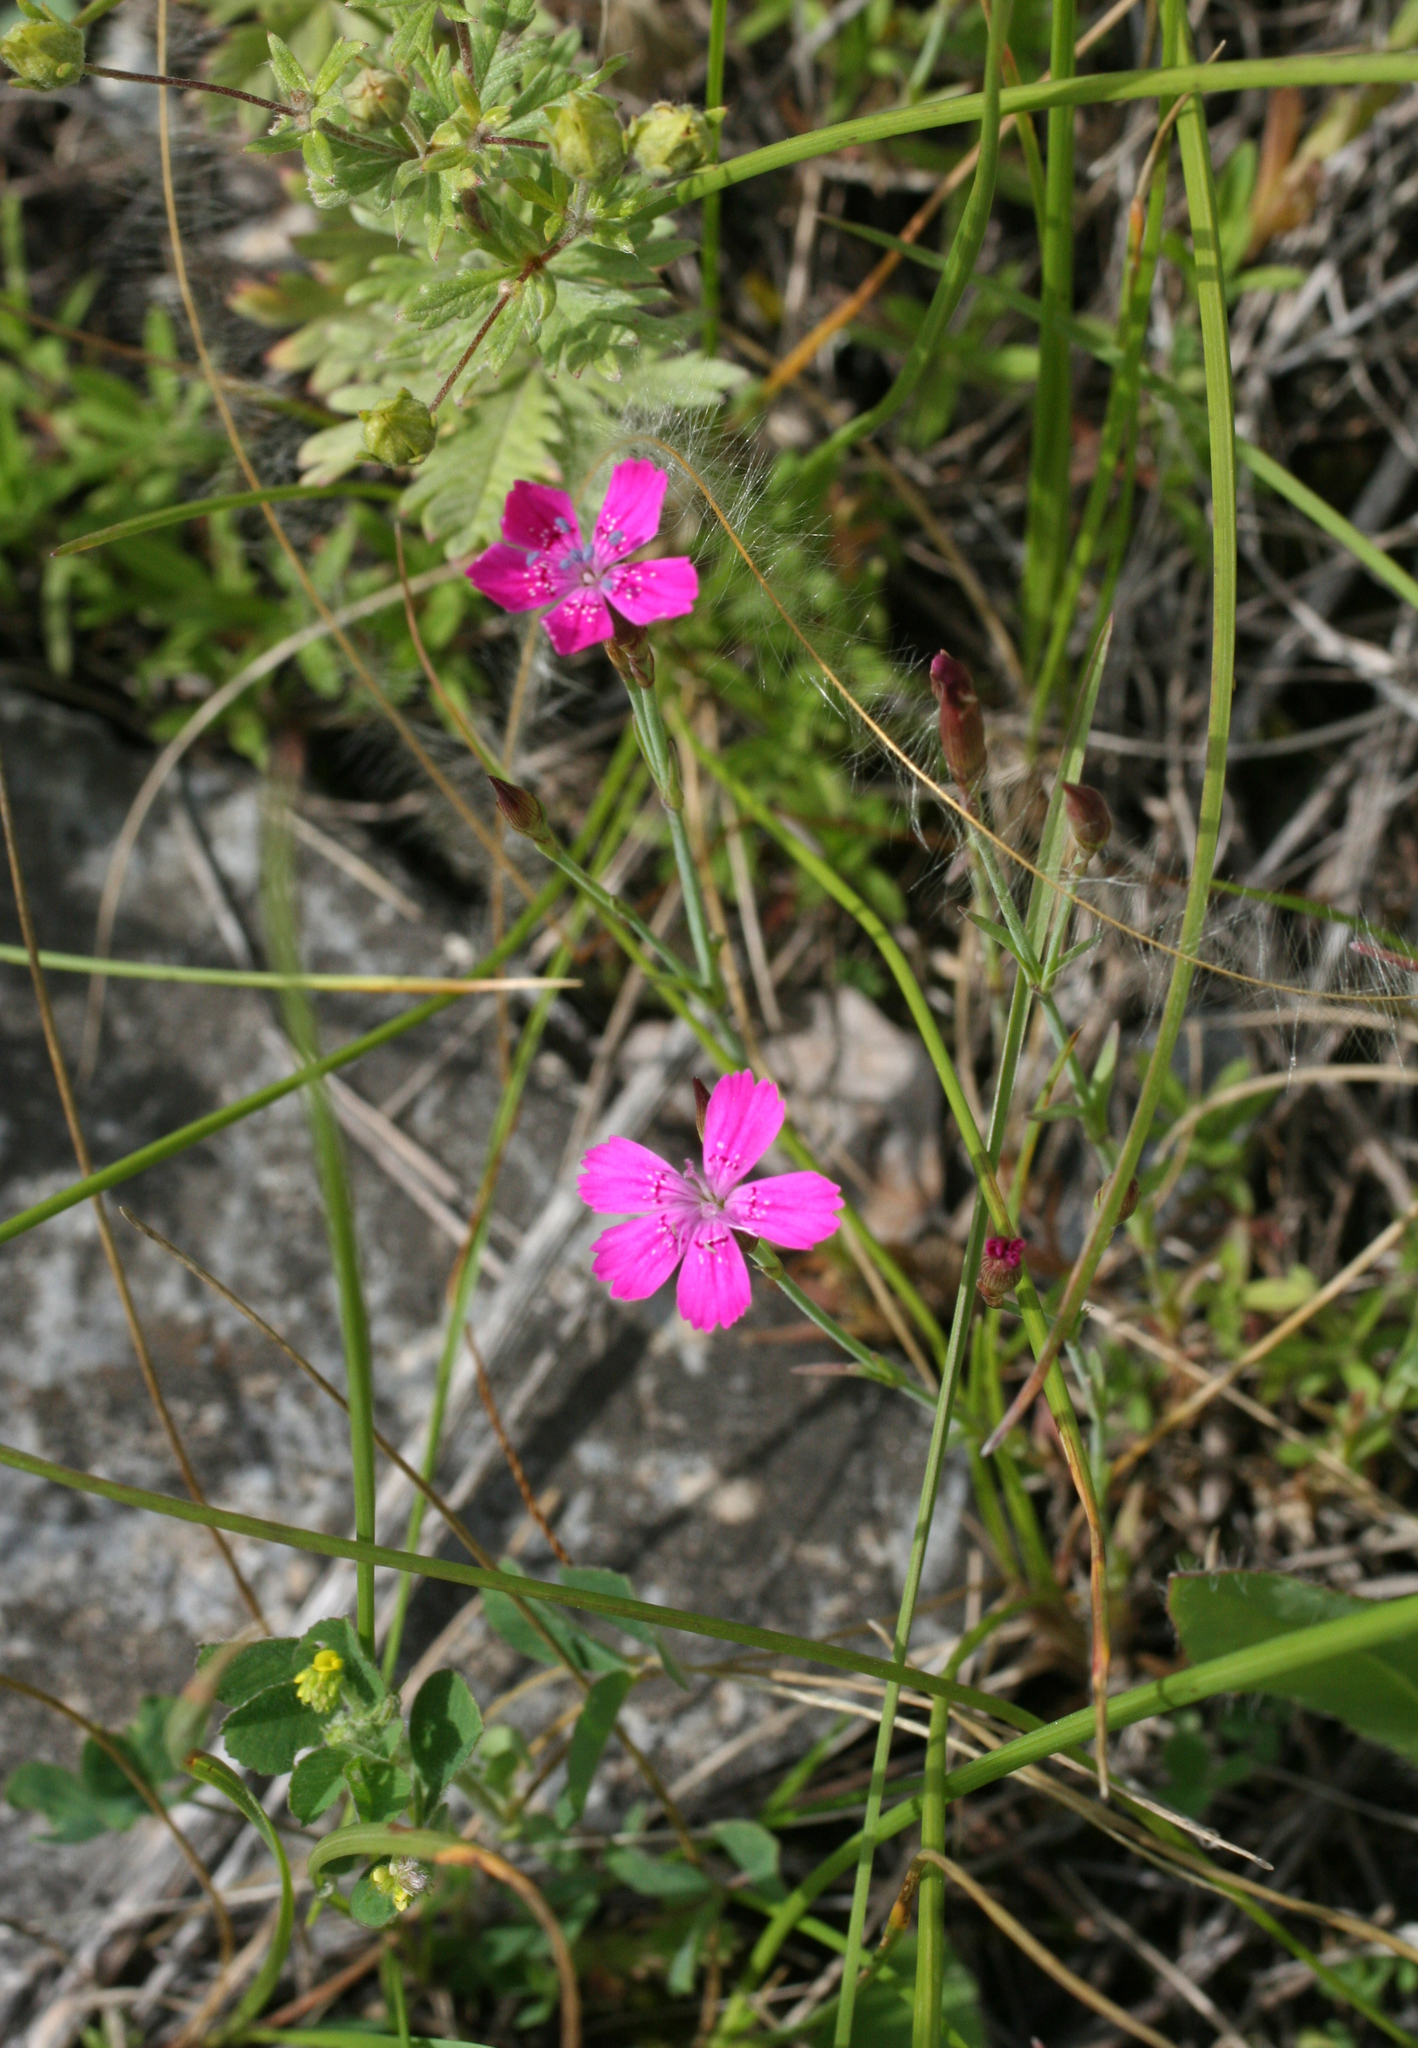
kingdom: Plantae
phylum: Tracheophyta
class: Magnoliopsida
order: Caryophyllales
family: Caryophyllaceae
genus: Dianthus
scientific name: Dianthus deltoides
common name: Maiden pink
